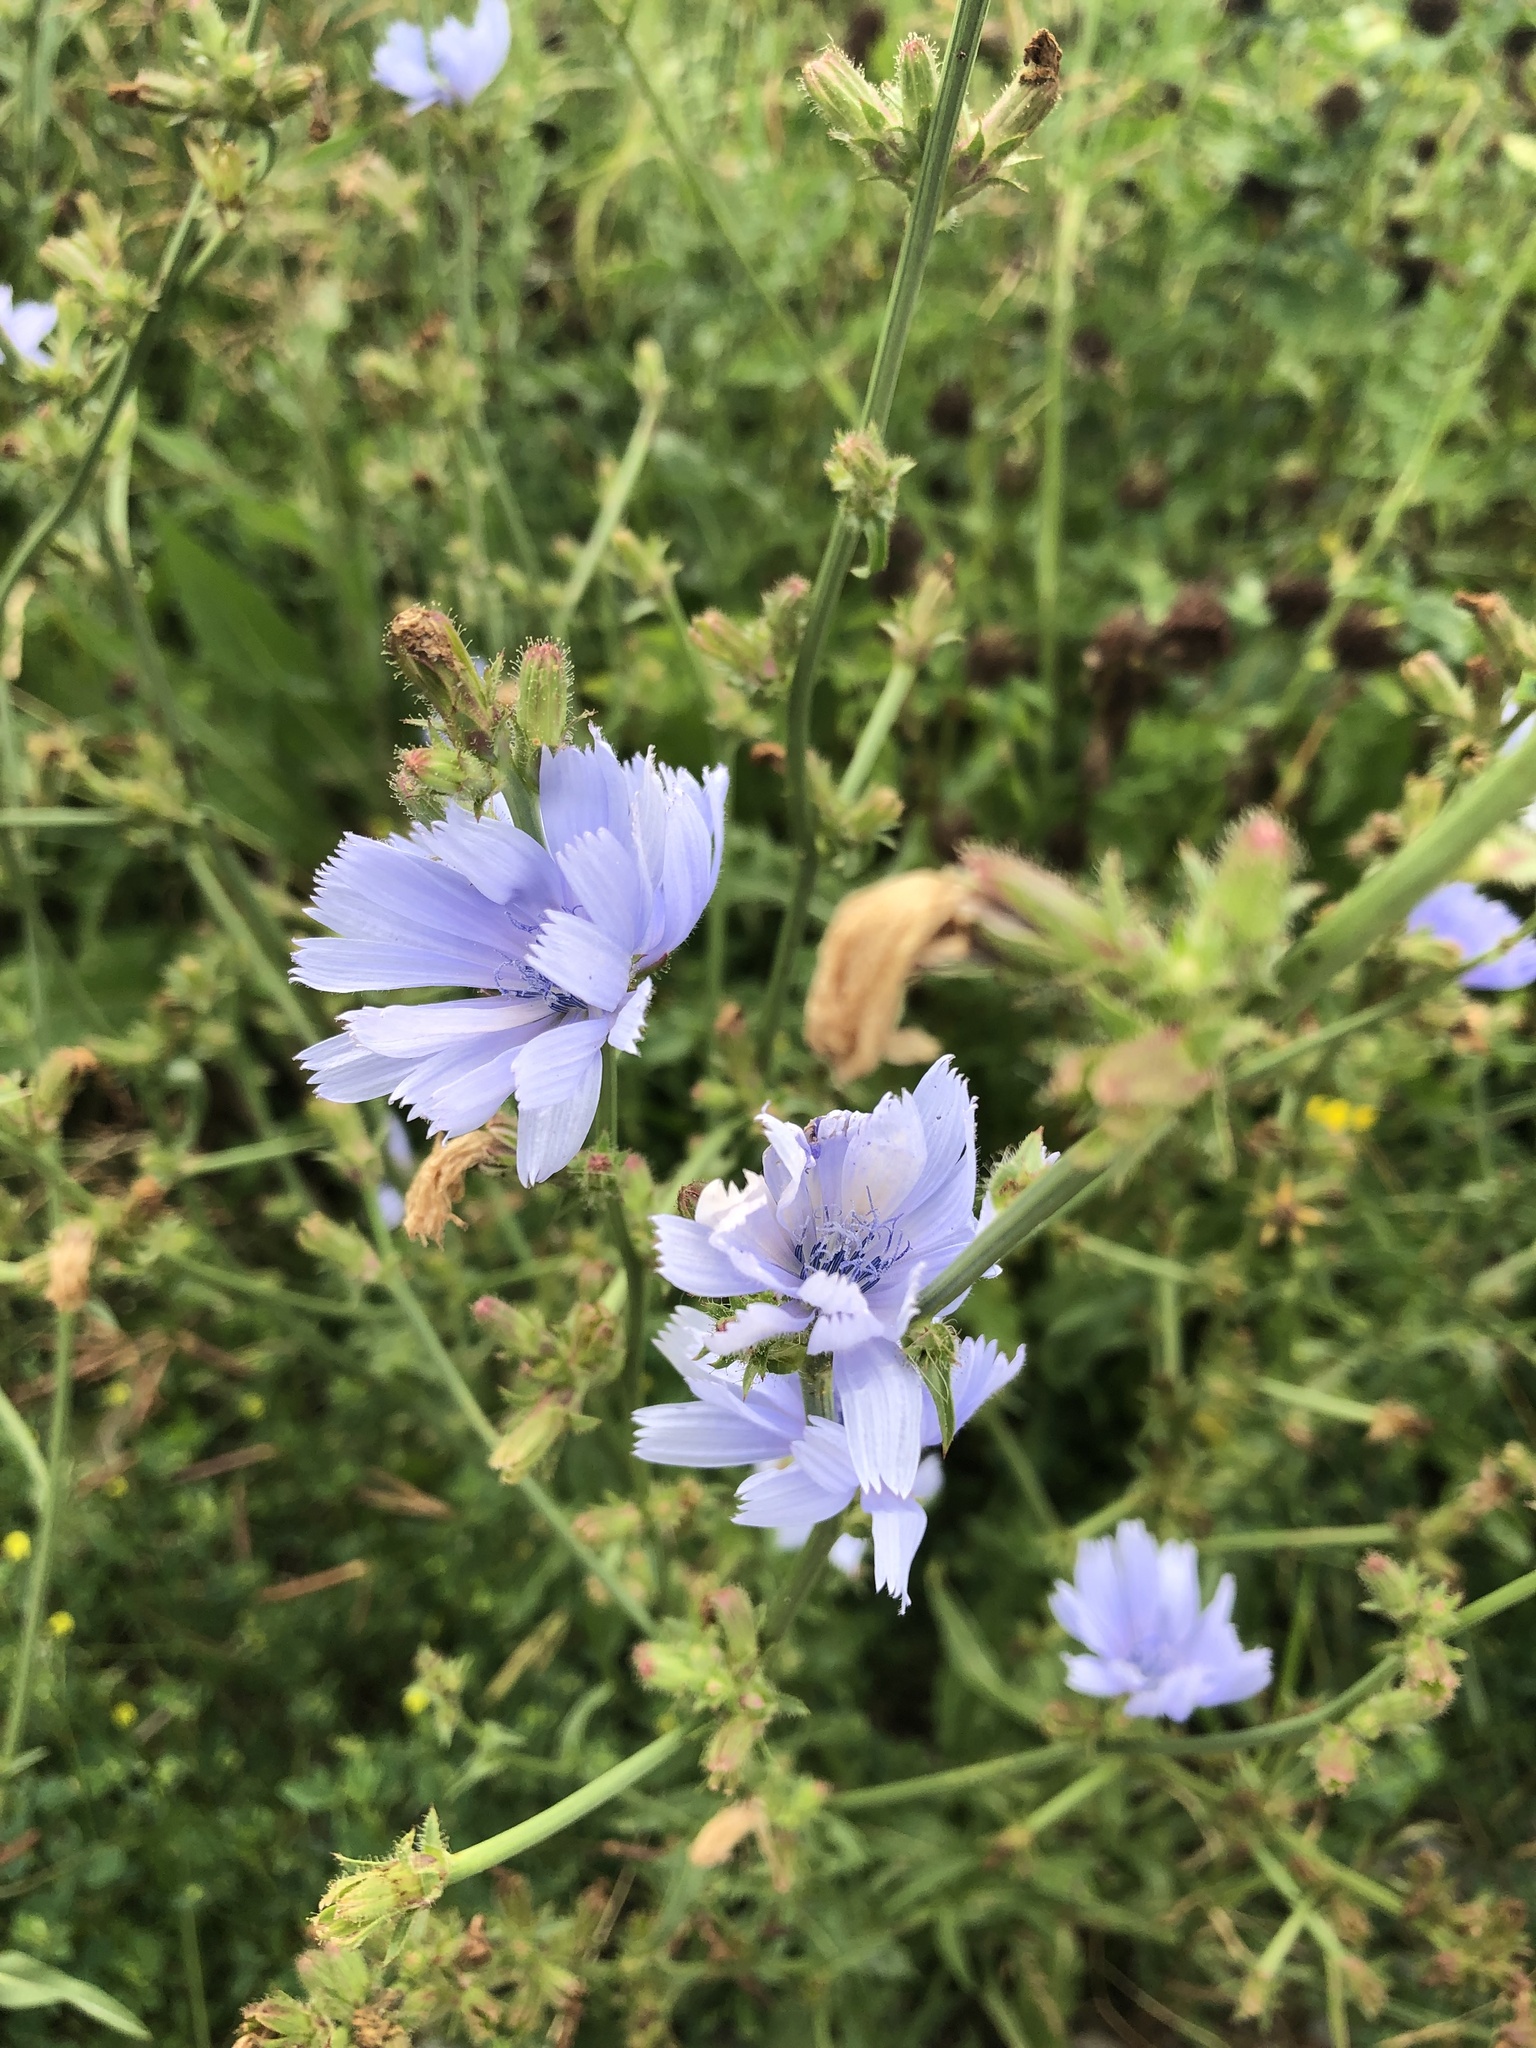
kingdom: Plantae
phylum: Tracheophyta
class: Magnoliopsida
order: Asterales
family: Asteraceae
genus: Cichorium
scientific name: Cichorium intybus
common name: Chicory
